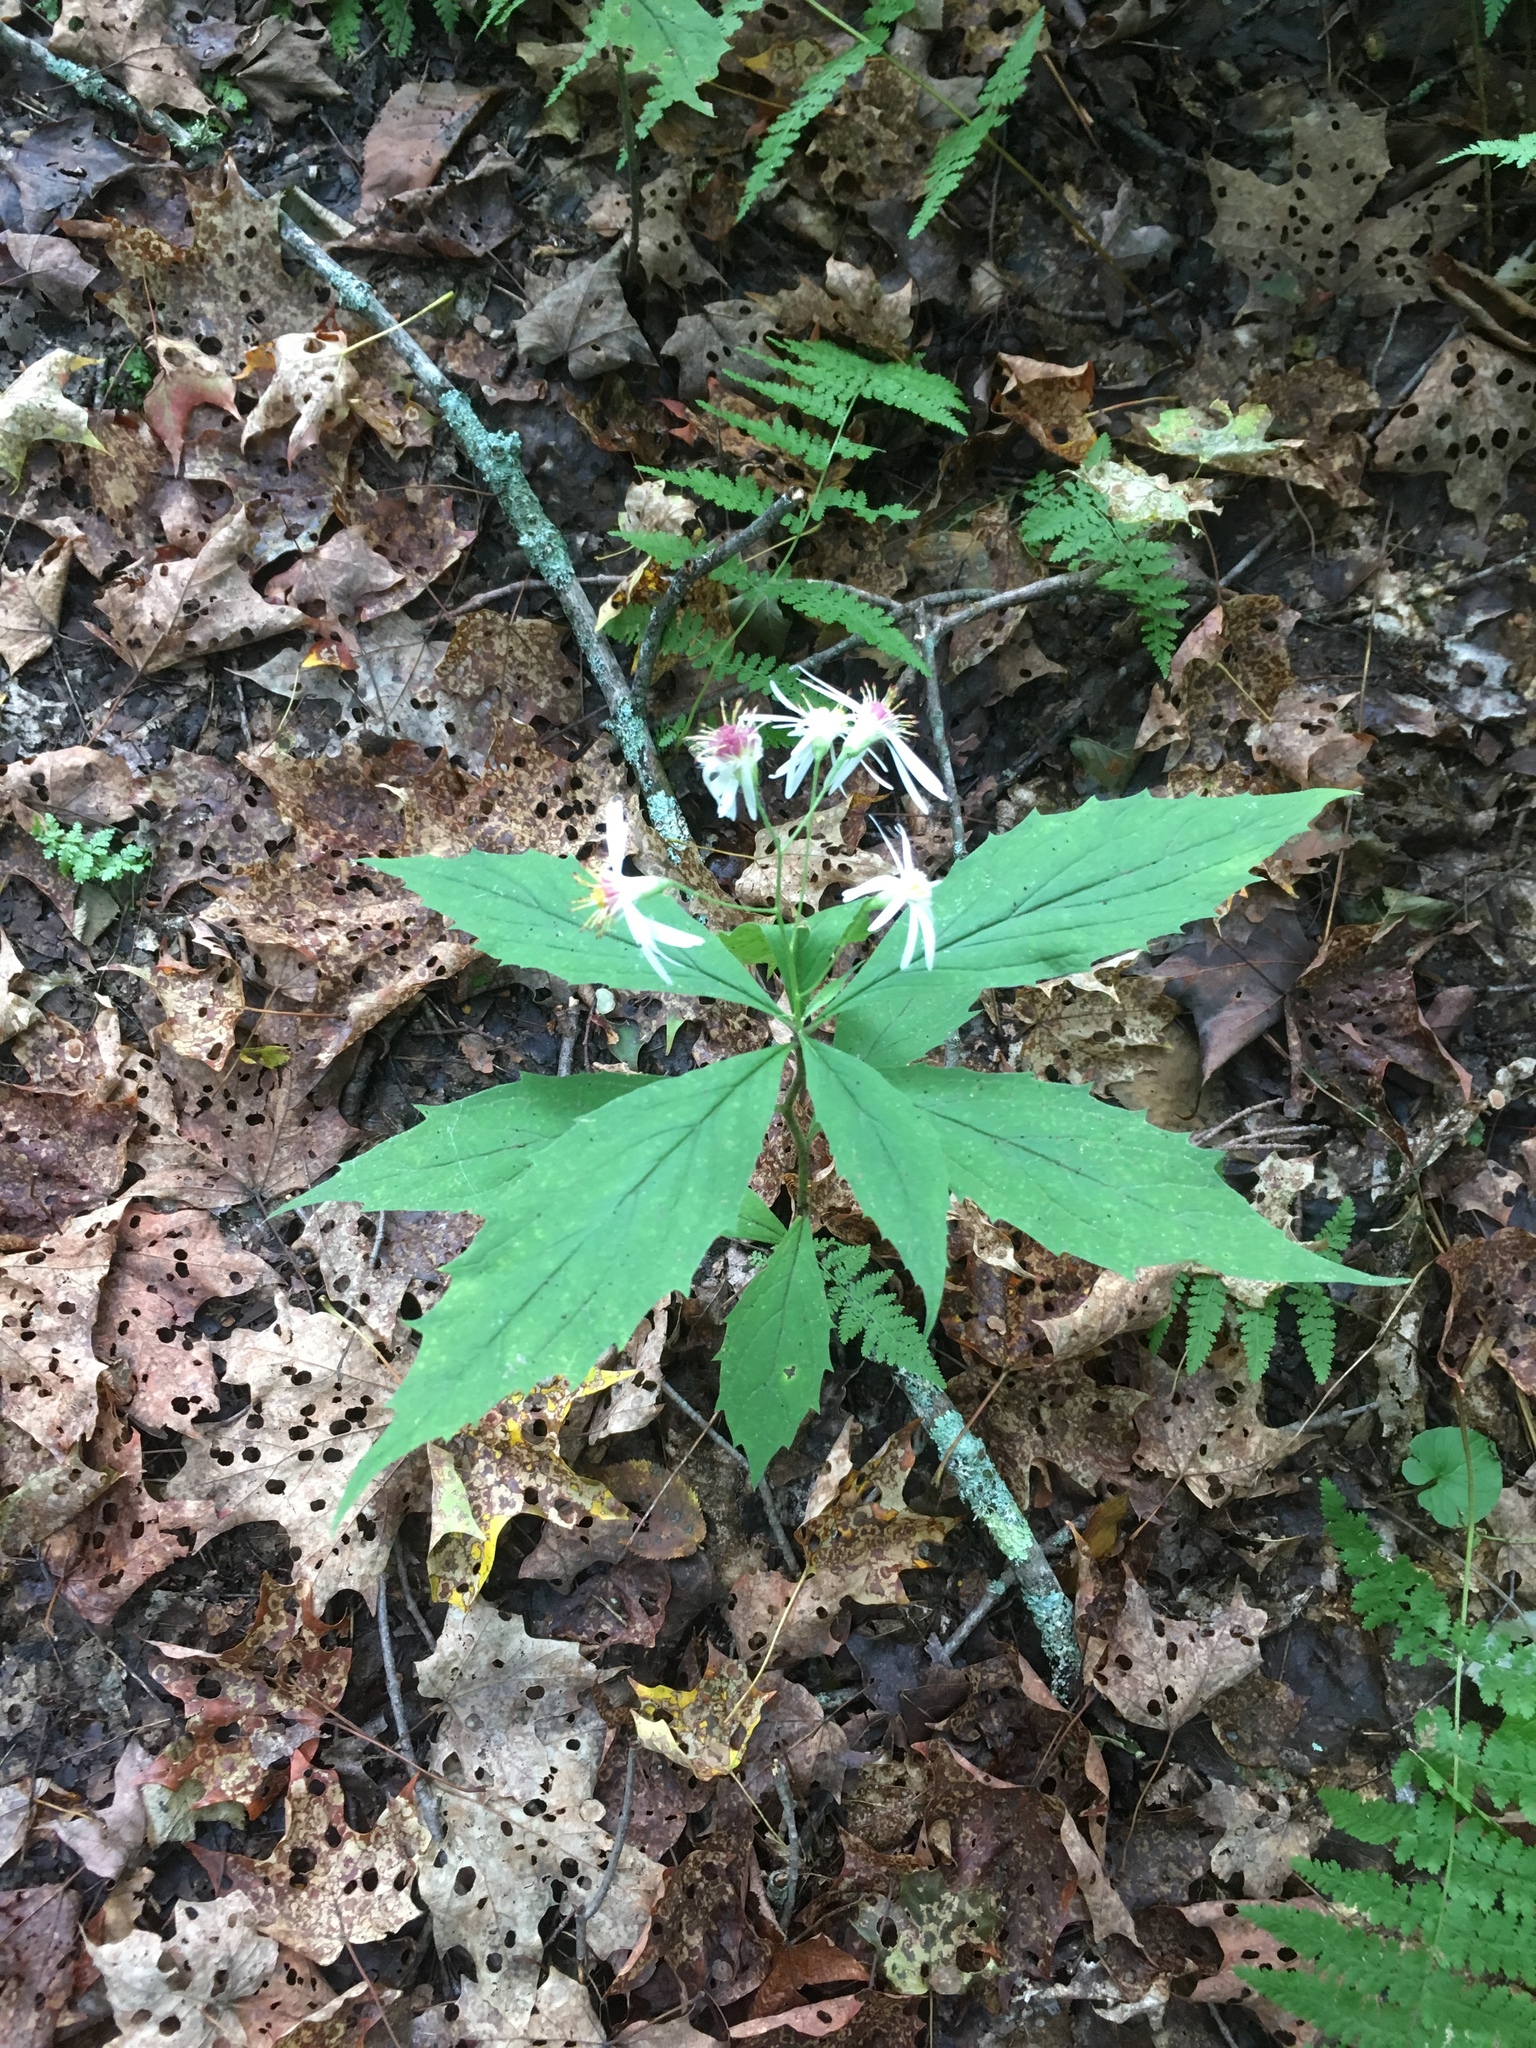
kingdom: Plantae
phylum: Tracheophyta
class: Magnoliopsida
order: Asterales
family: Asteraceae
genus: Oclemena
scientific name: Oclemena acuminata
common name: Mountain aster
